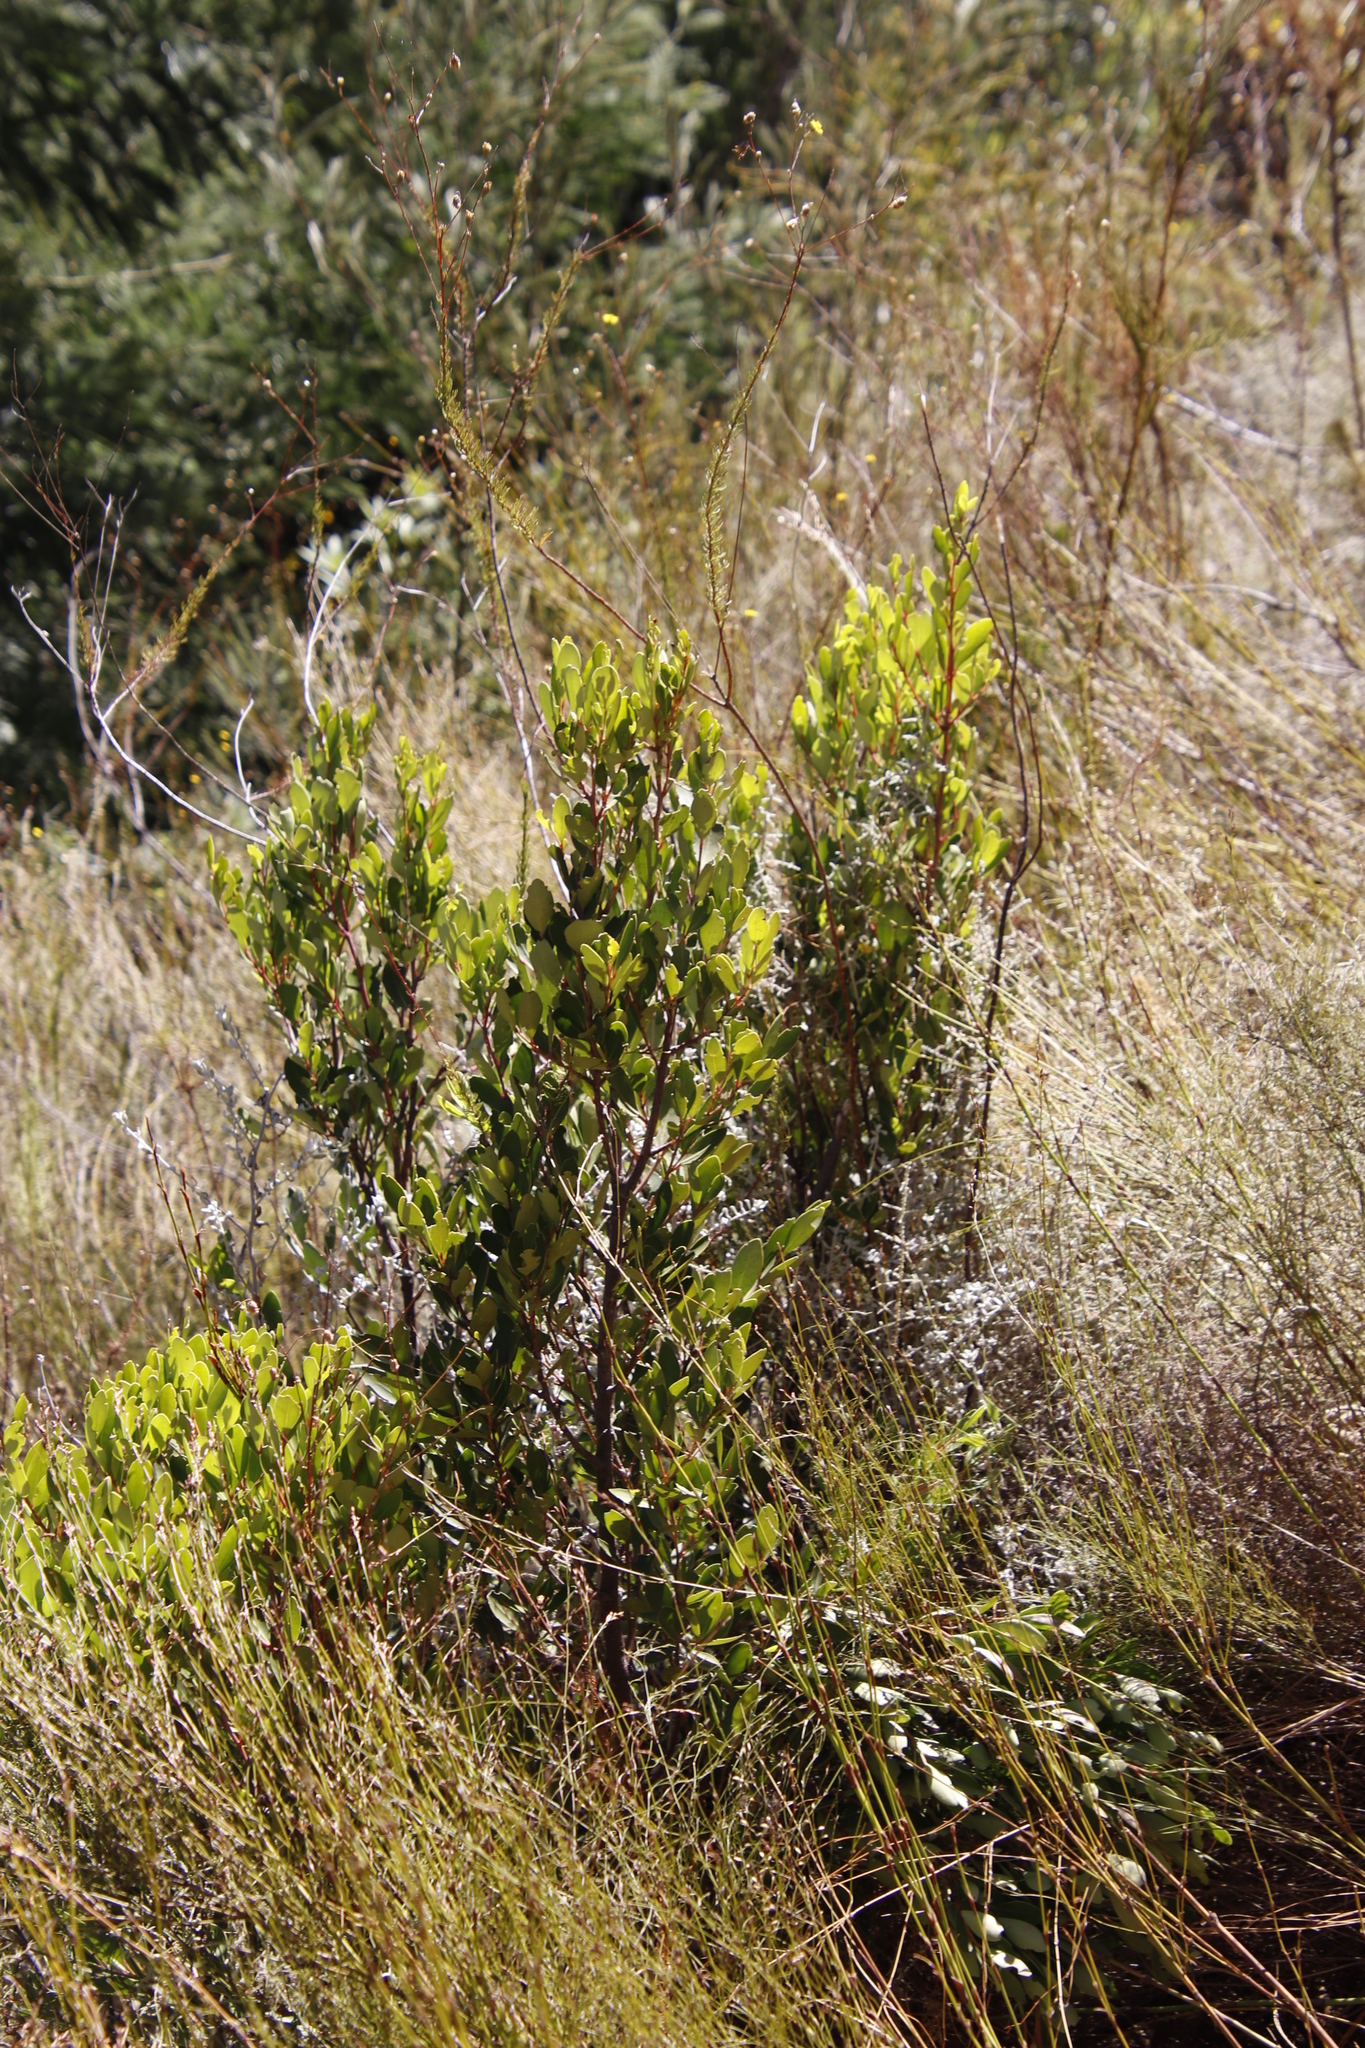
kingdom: Plantae
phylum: Tracheophyta
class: Magnoliopsida
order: Celastrales
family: Celastraceae
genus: Pterocelastrus
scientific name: Pterocelastrus tricuspidatus
